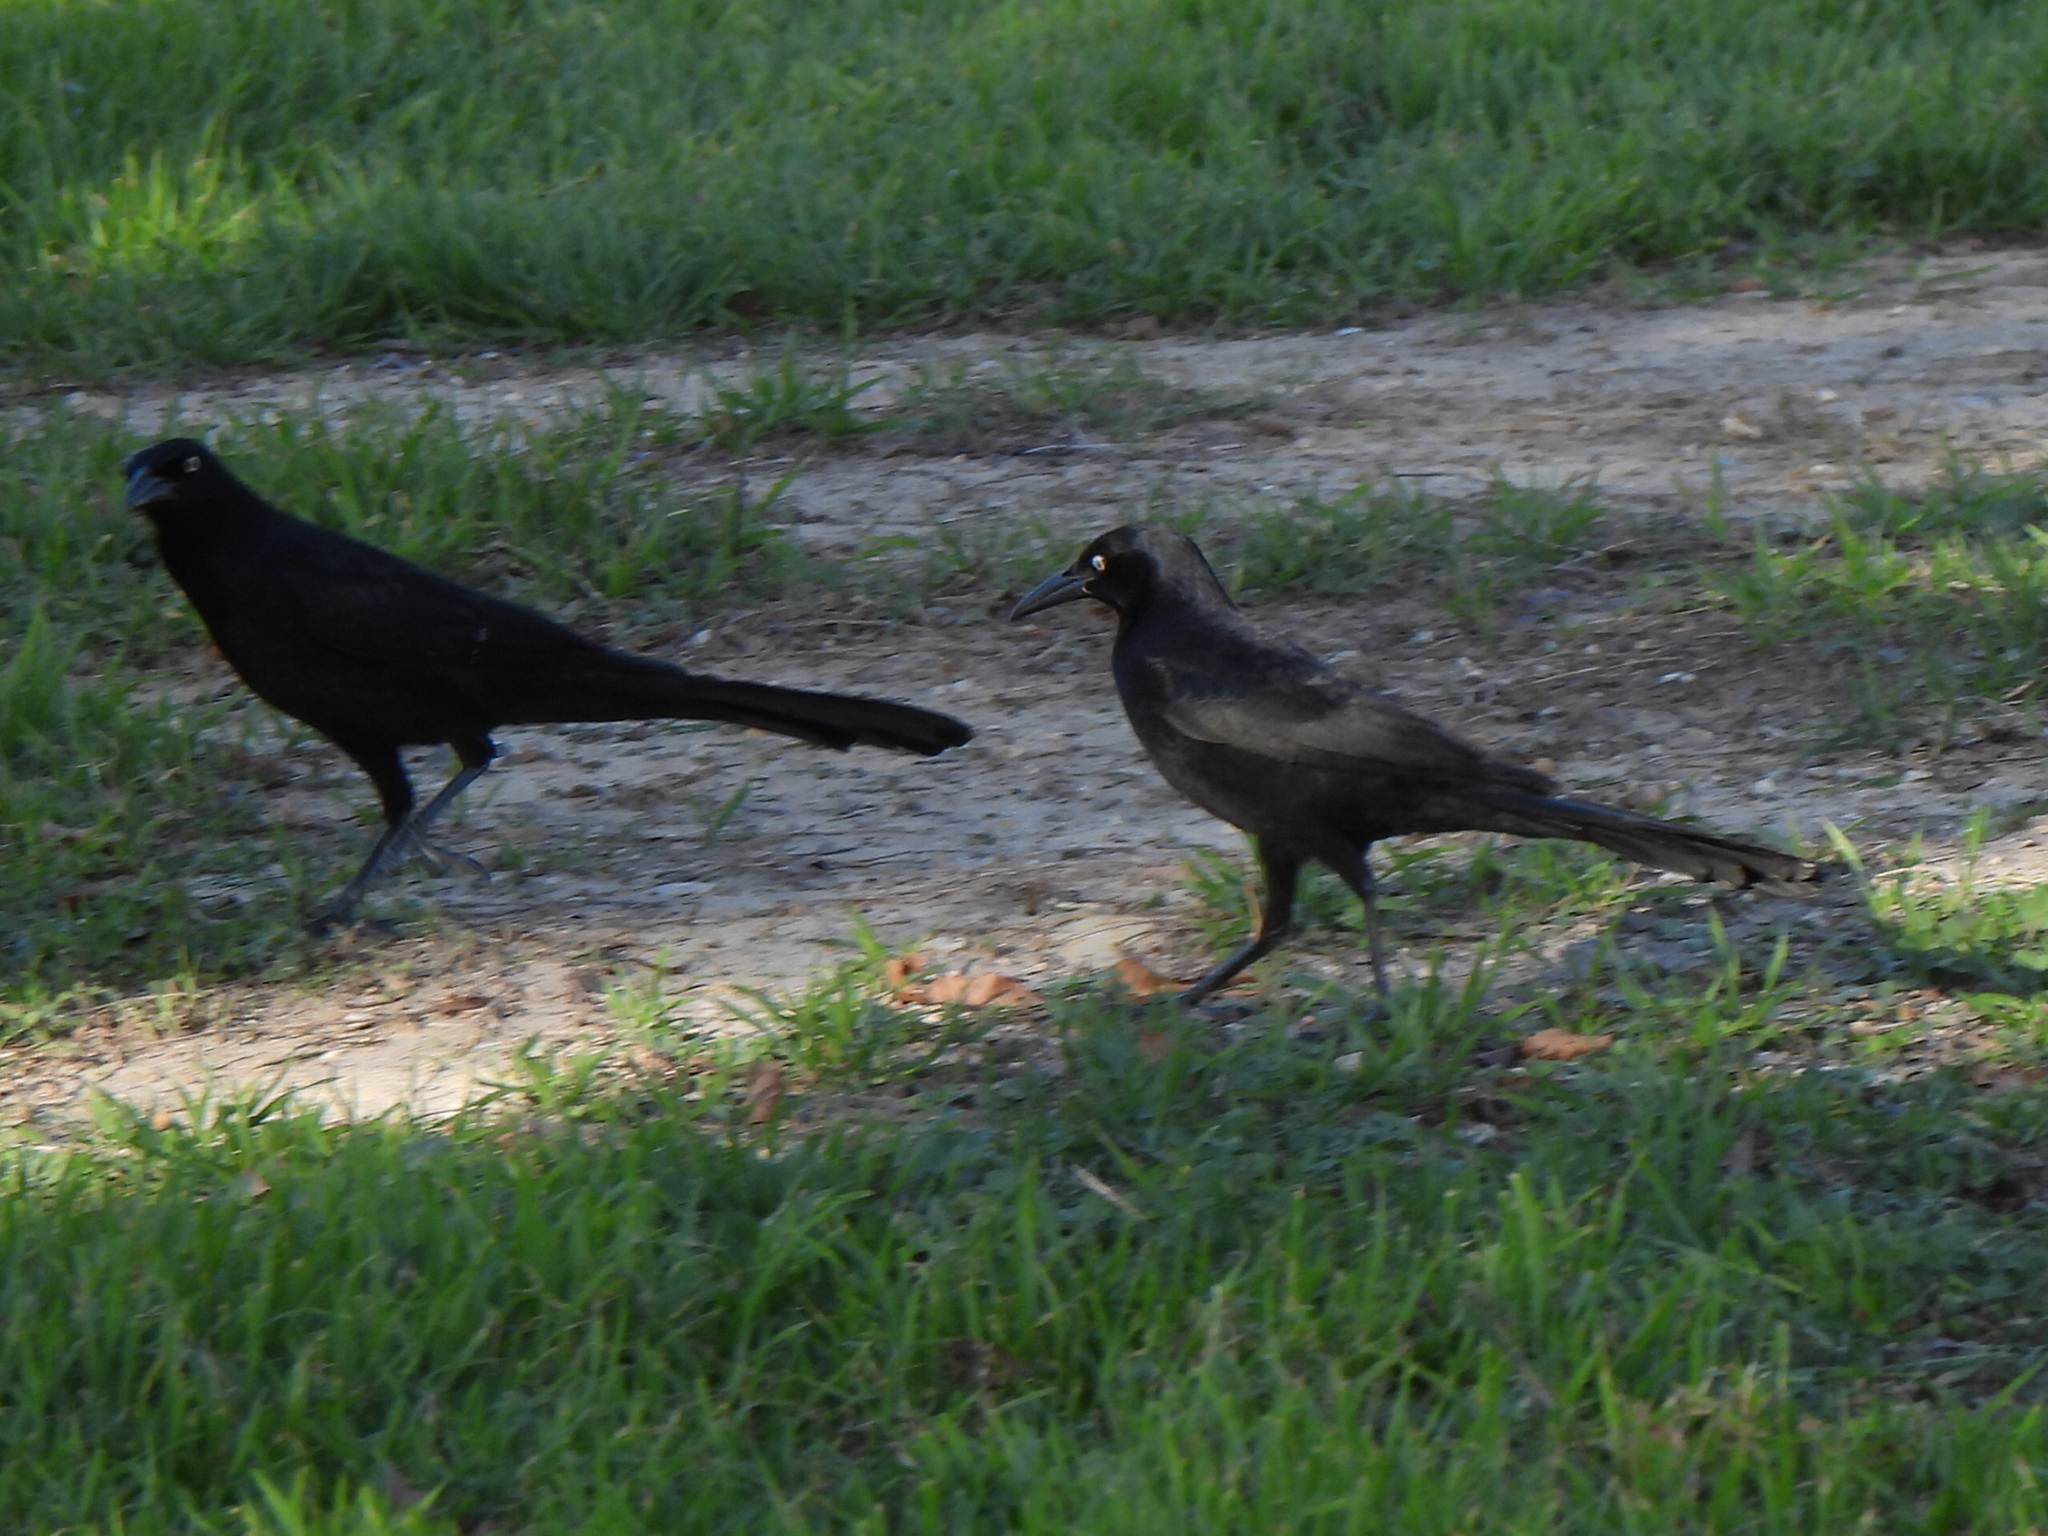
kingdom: Animalia
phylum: Chordata
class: Aves
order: Passeriformes
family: Icteridae
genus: Quiscalus
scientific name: Quiscalus mexicanus
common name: Great-tailed grackle
